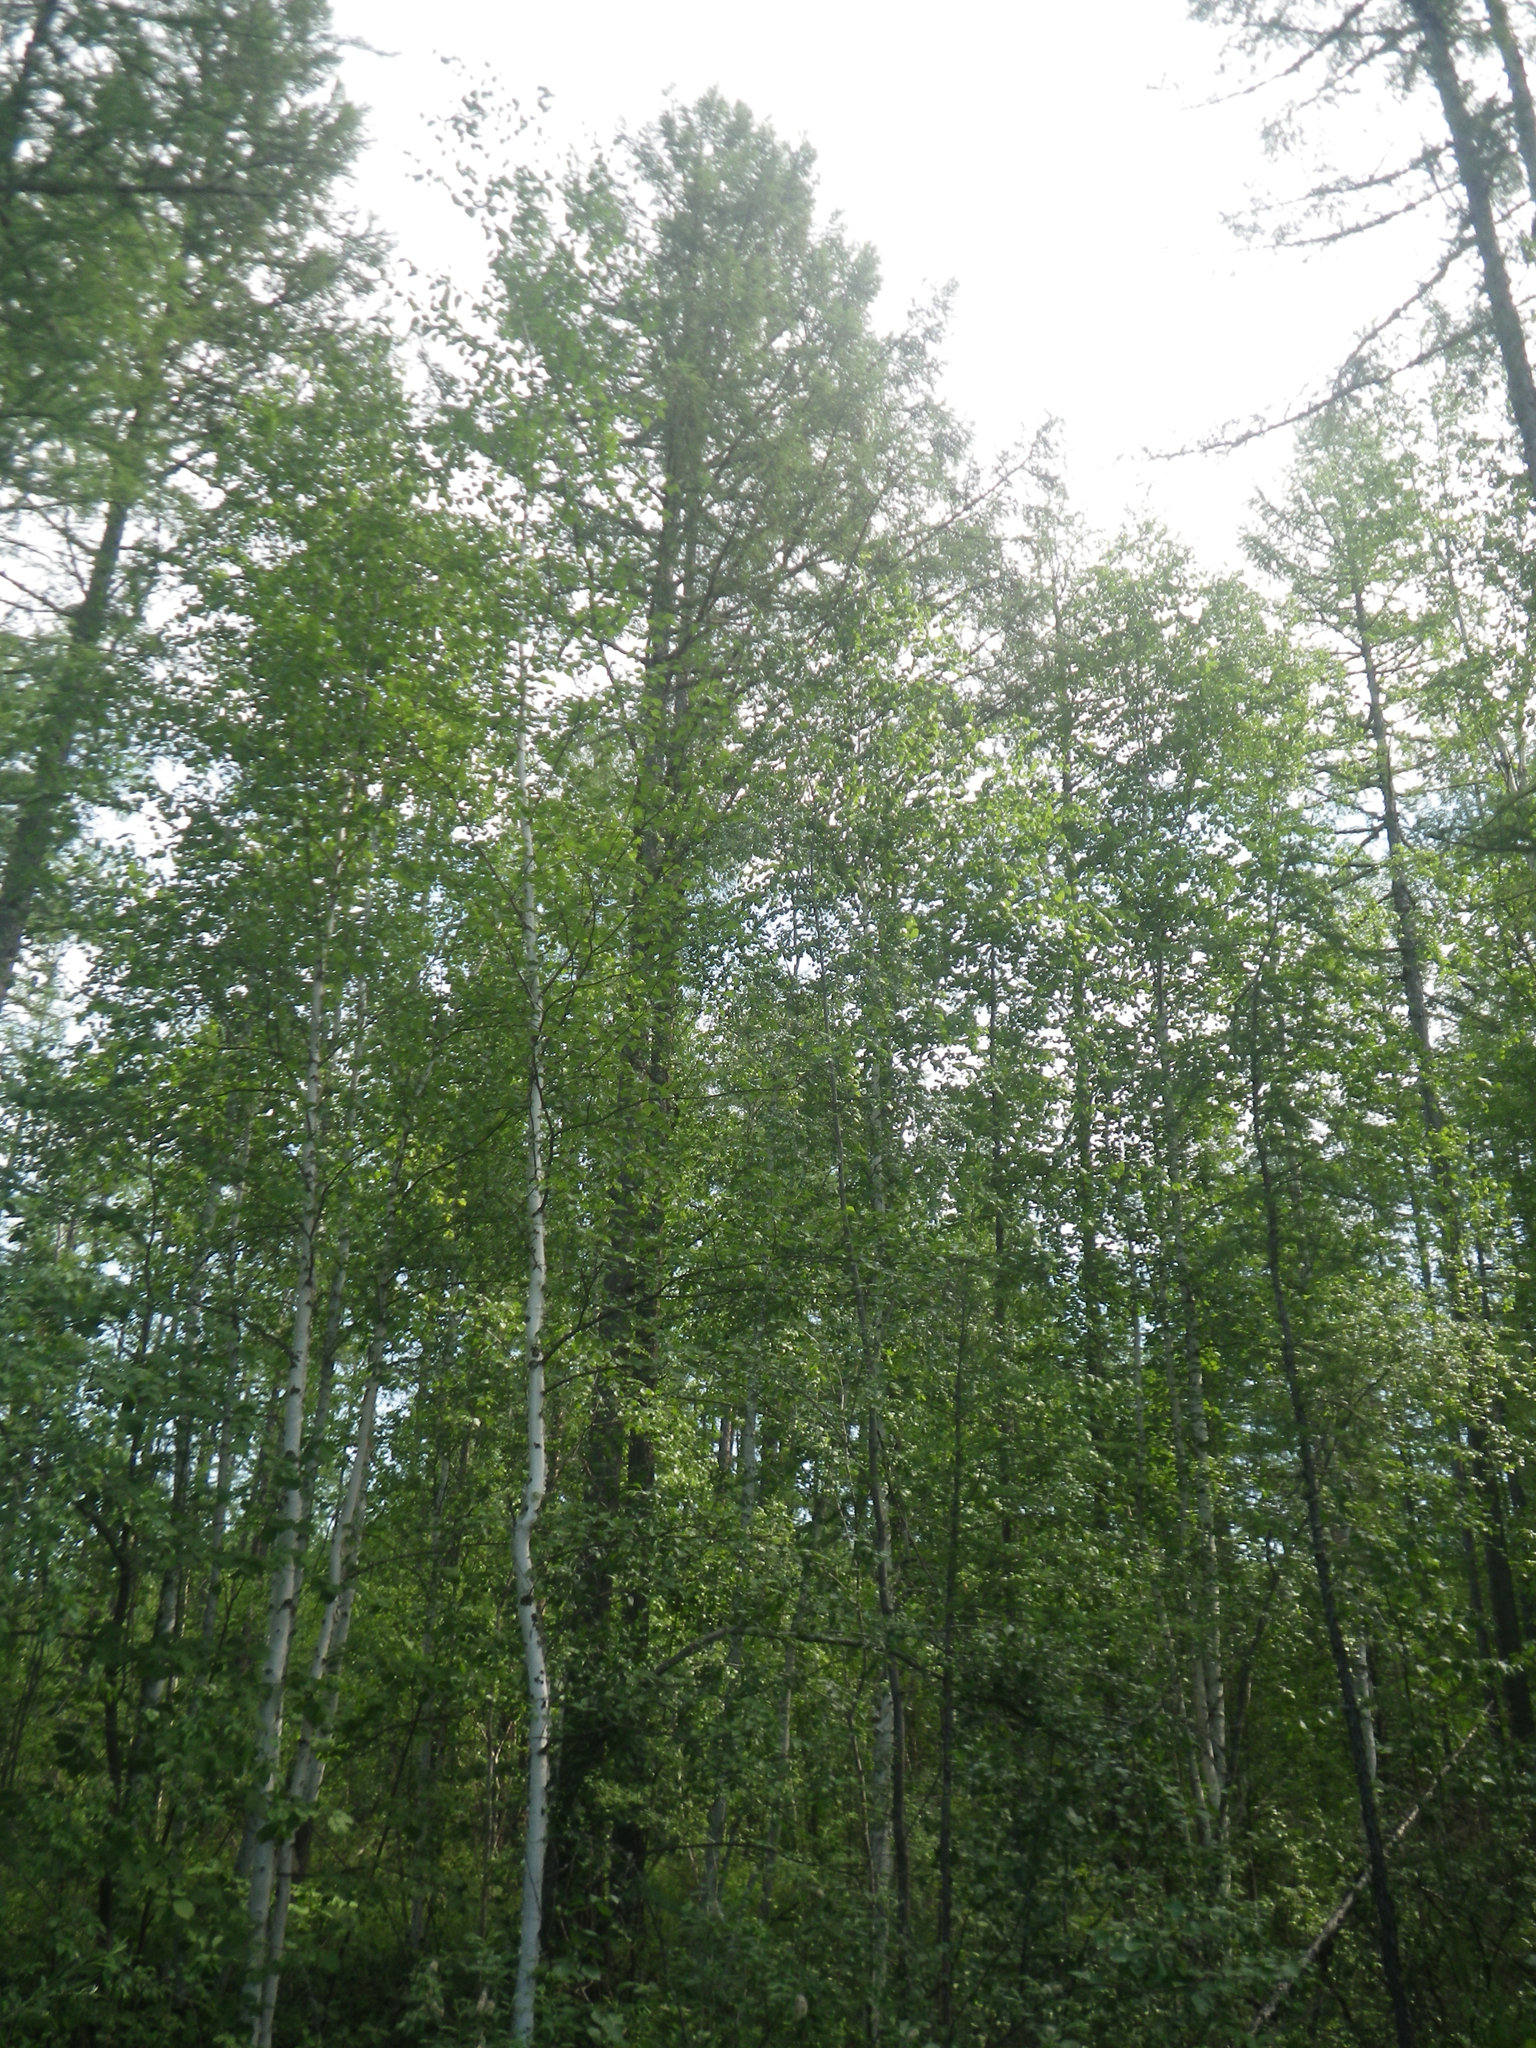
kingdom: Plantae
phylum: Tracheophyta
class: Pinopsida
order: Pinales
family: Pinaceae
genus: Larix
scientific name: Larix gmelinii
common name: Dahurian larch
